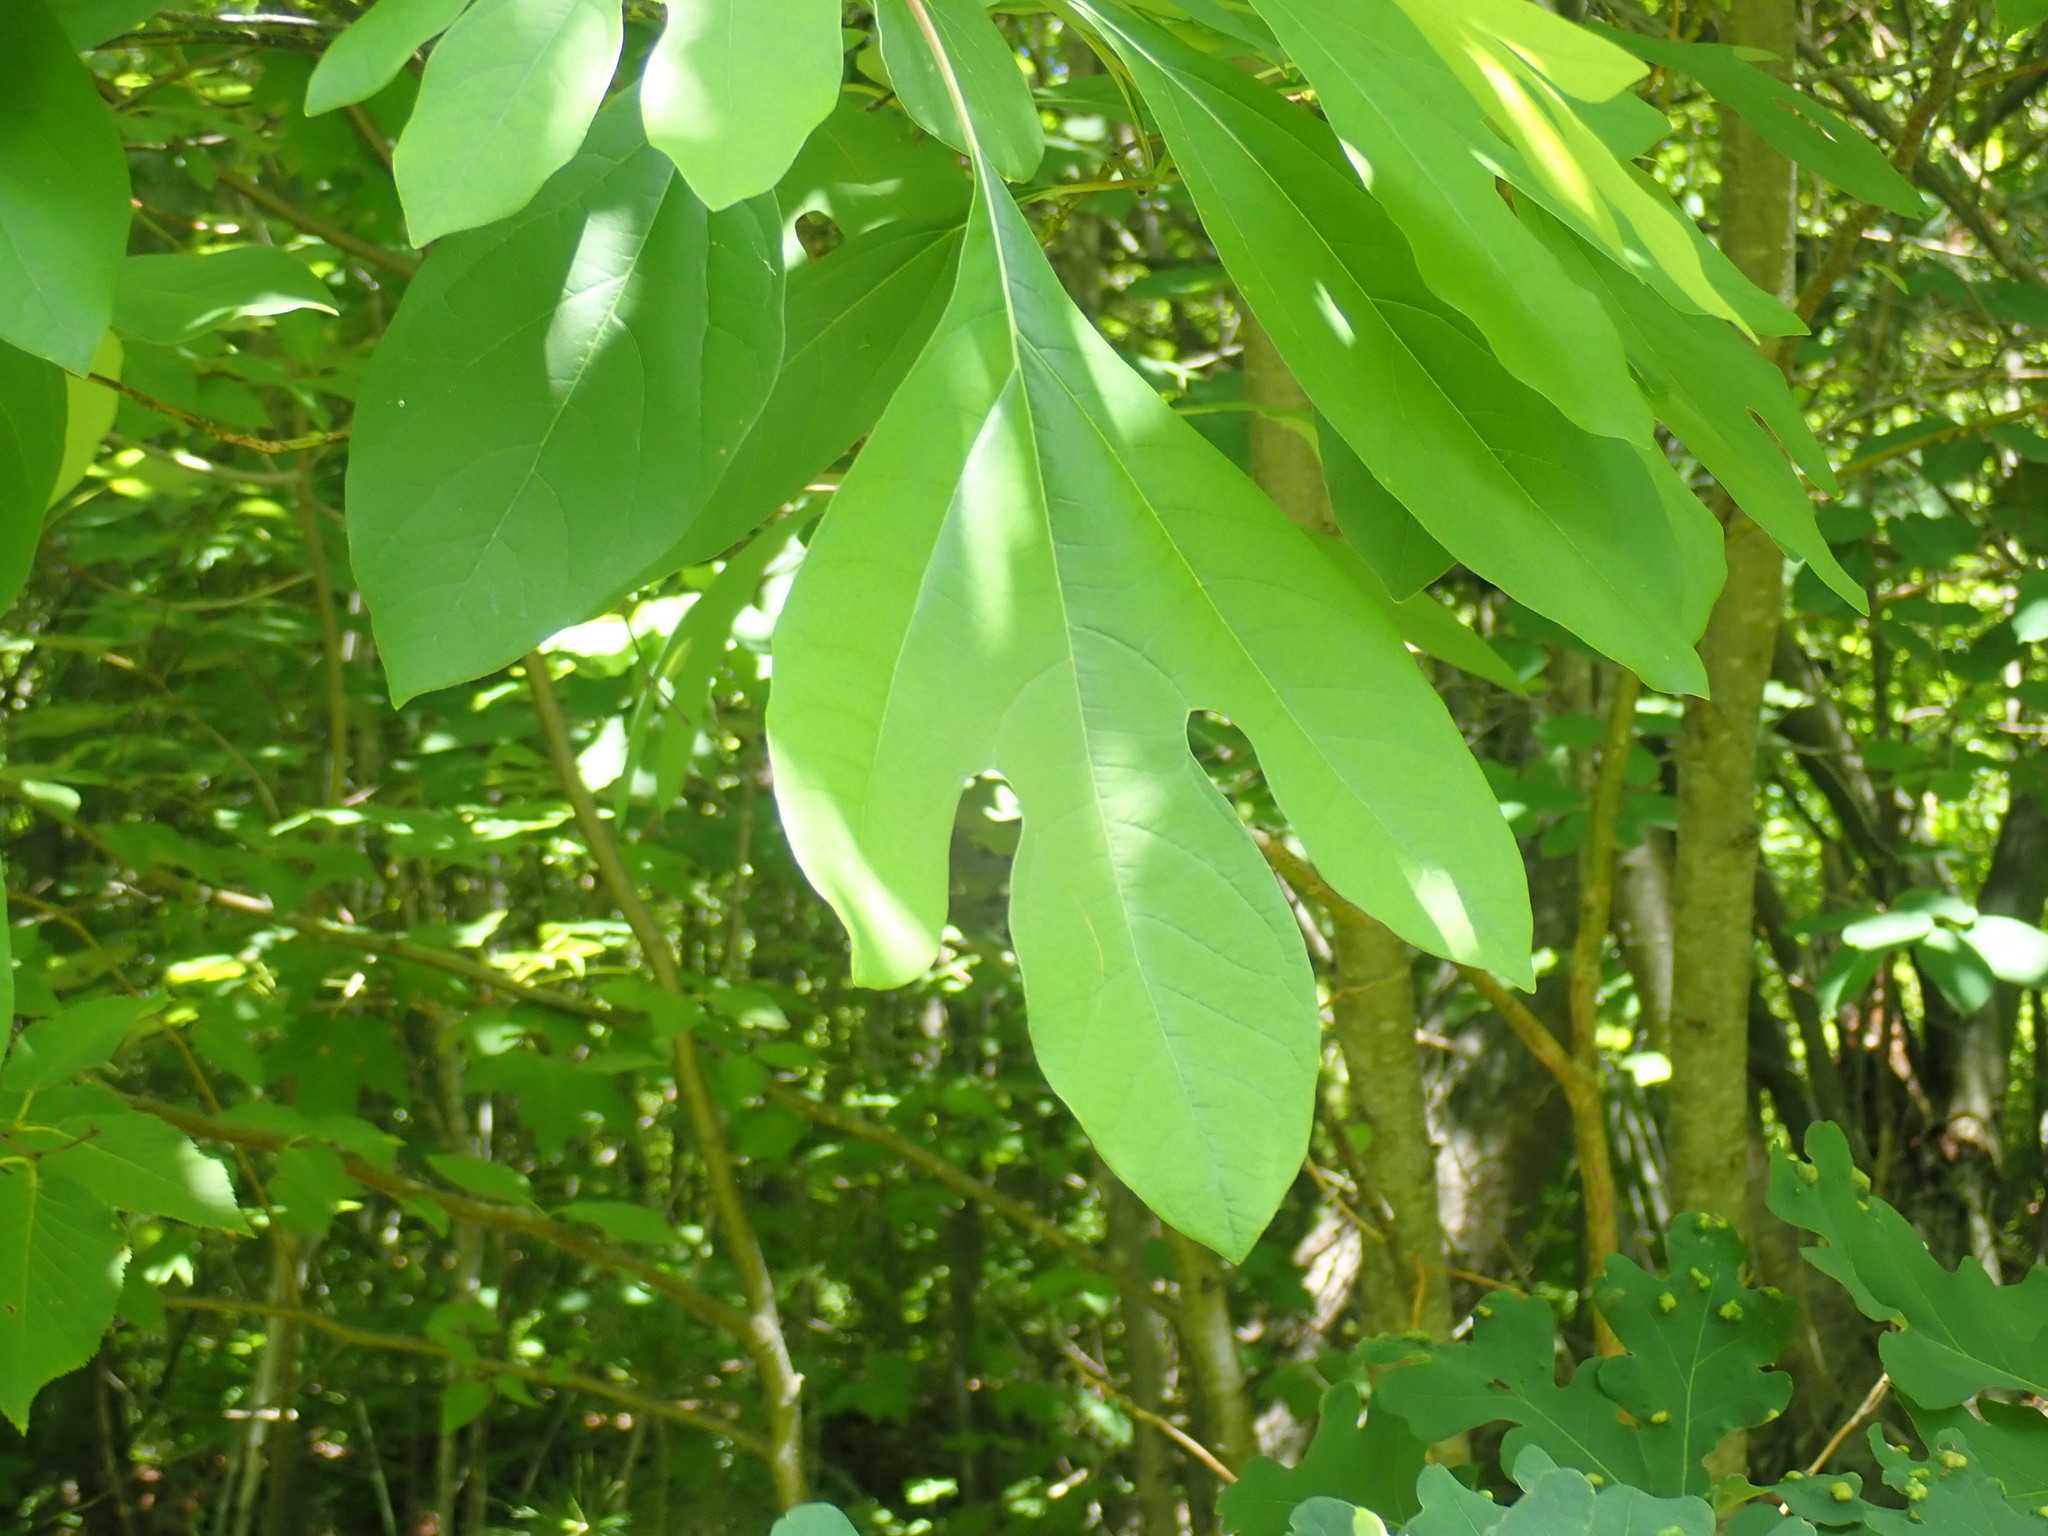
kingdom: Plantae
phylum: Tracheophyta
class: Magnoliopsida
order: Laurales
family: Lauraceae
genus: Sassafras
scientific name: Sassafras albidum
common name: Sassafras
